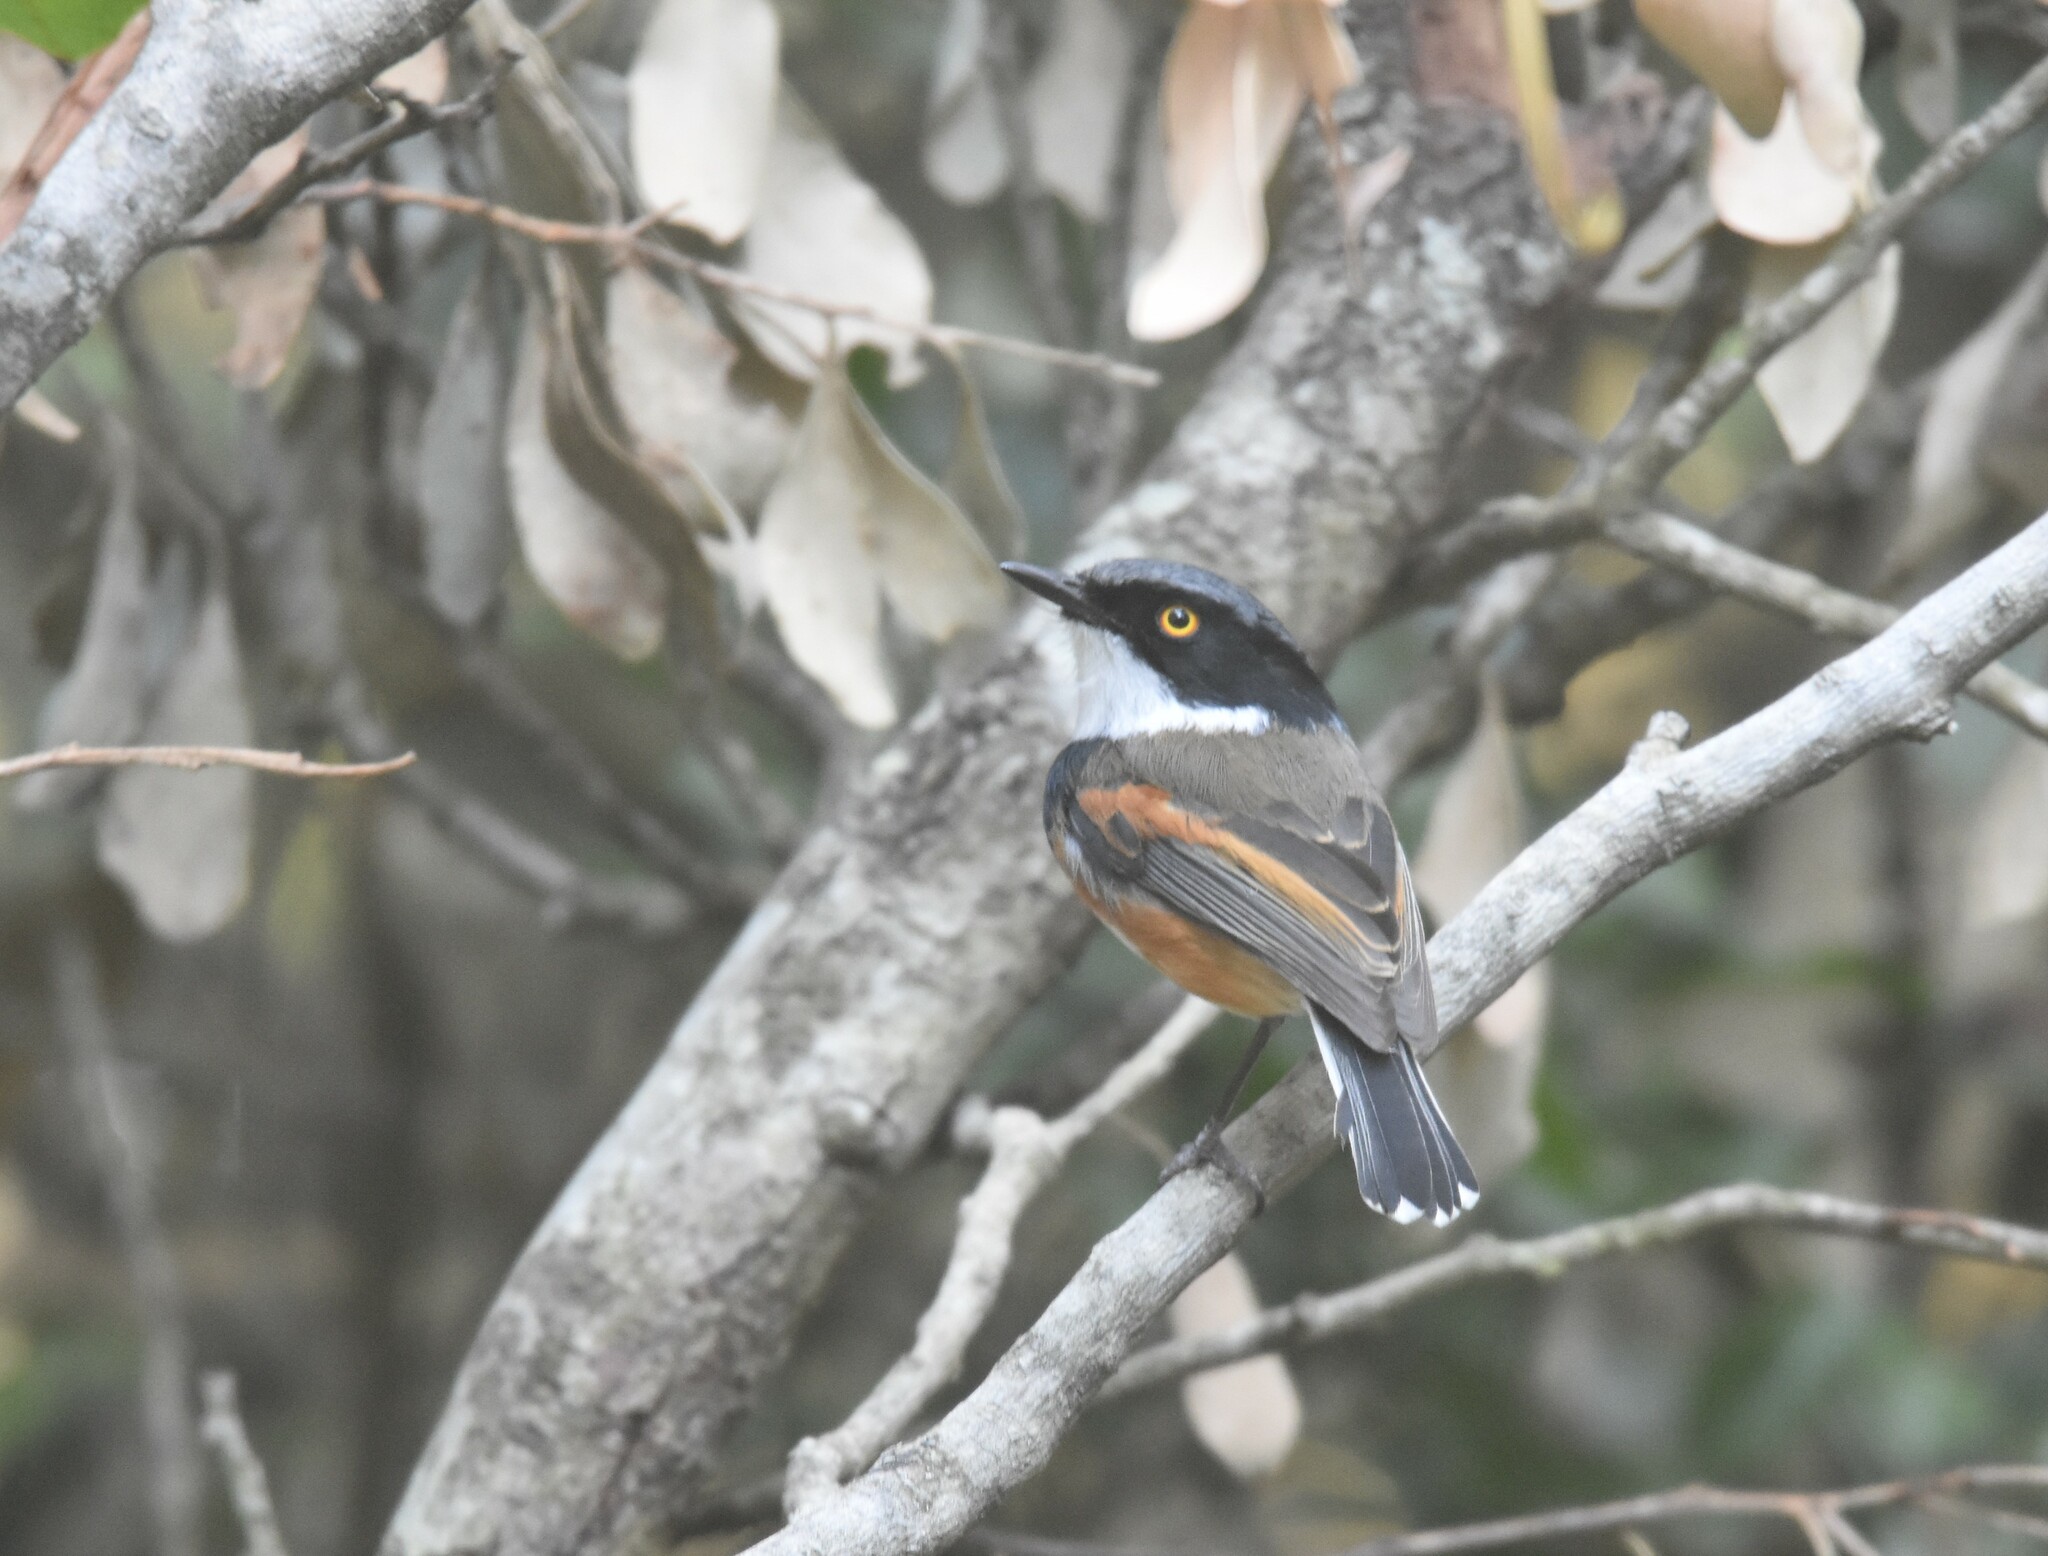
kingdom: Animalia
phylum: Chordata
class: Aves
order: Passeriformes
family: Platysteiridae
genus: Batis
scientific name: Batis capensis
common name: Cape batis
